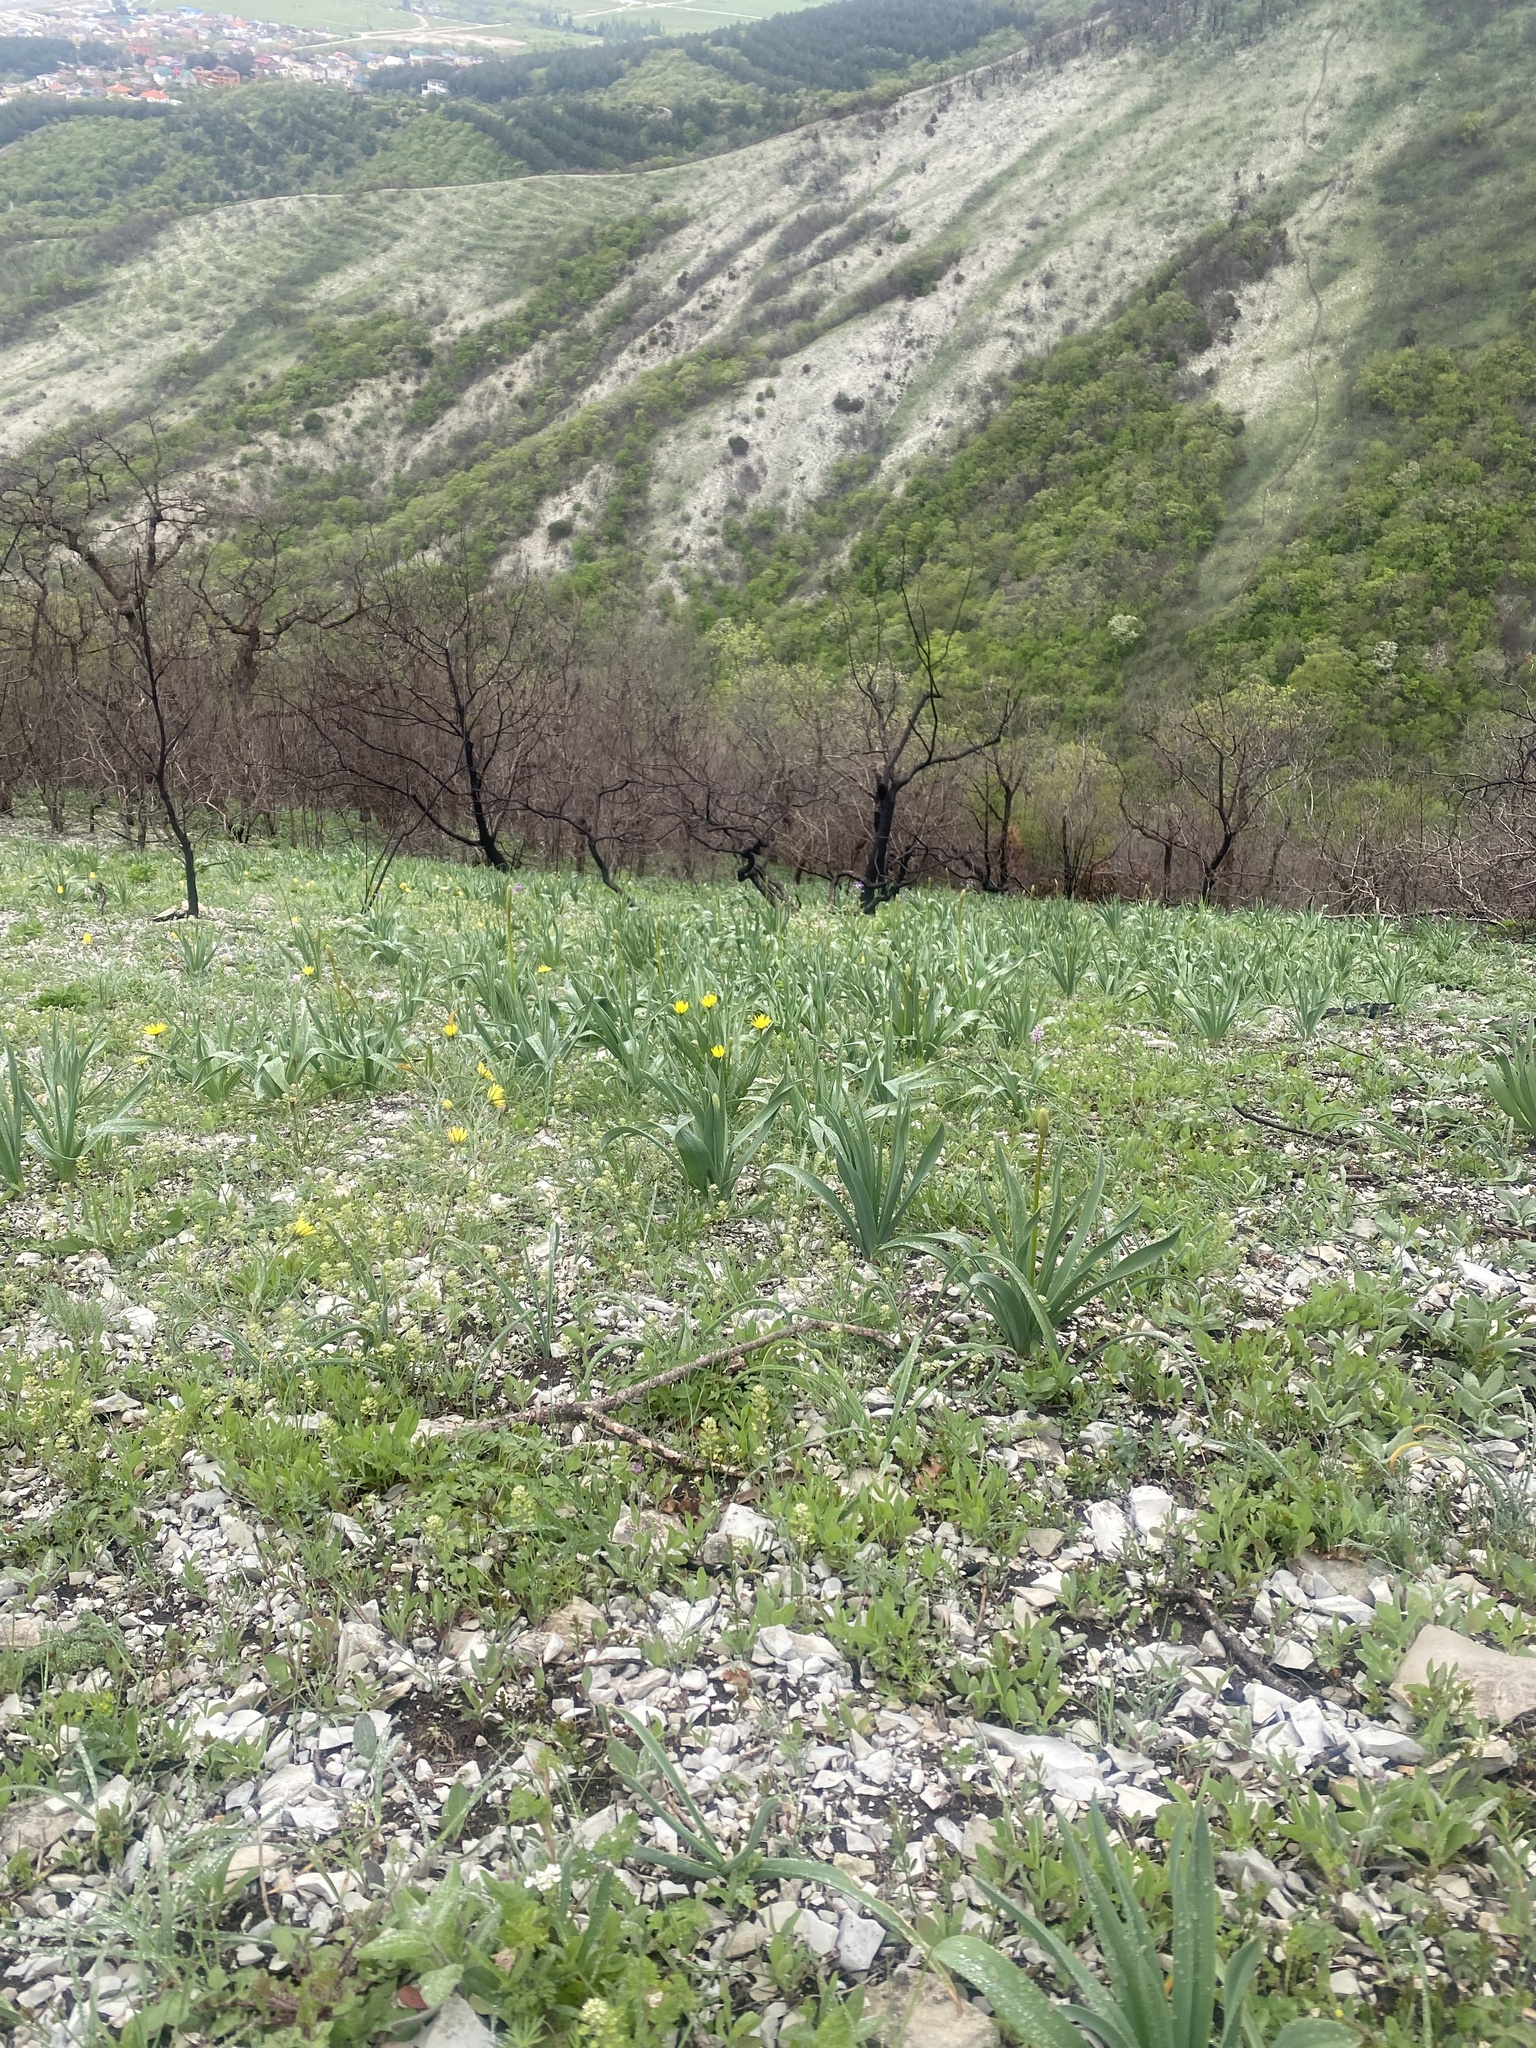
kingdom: Plantae
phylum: Tracheophyta
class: Liliopsida
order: Asparagales
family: Asphodelaceae
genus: Eremurus
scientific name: Eremurus spectabilis
